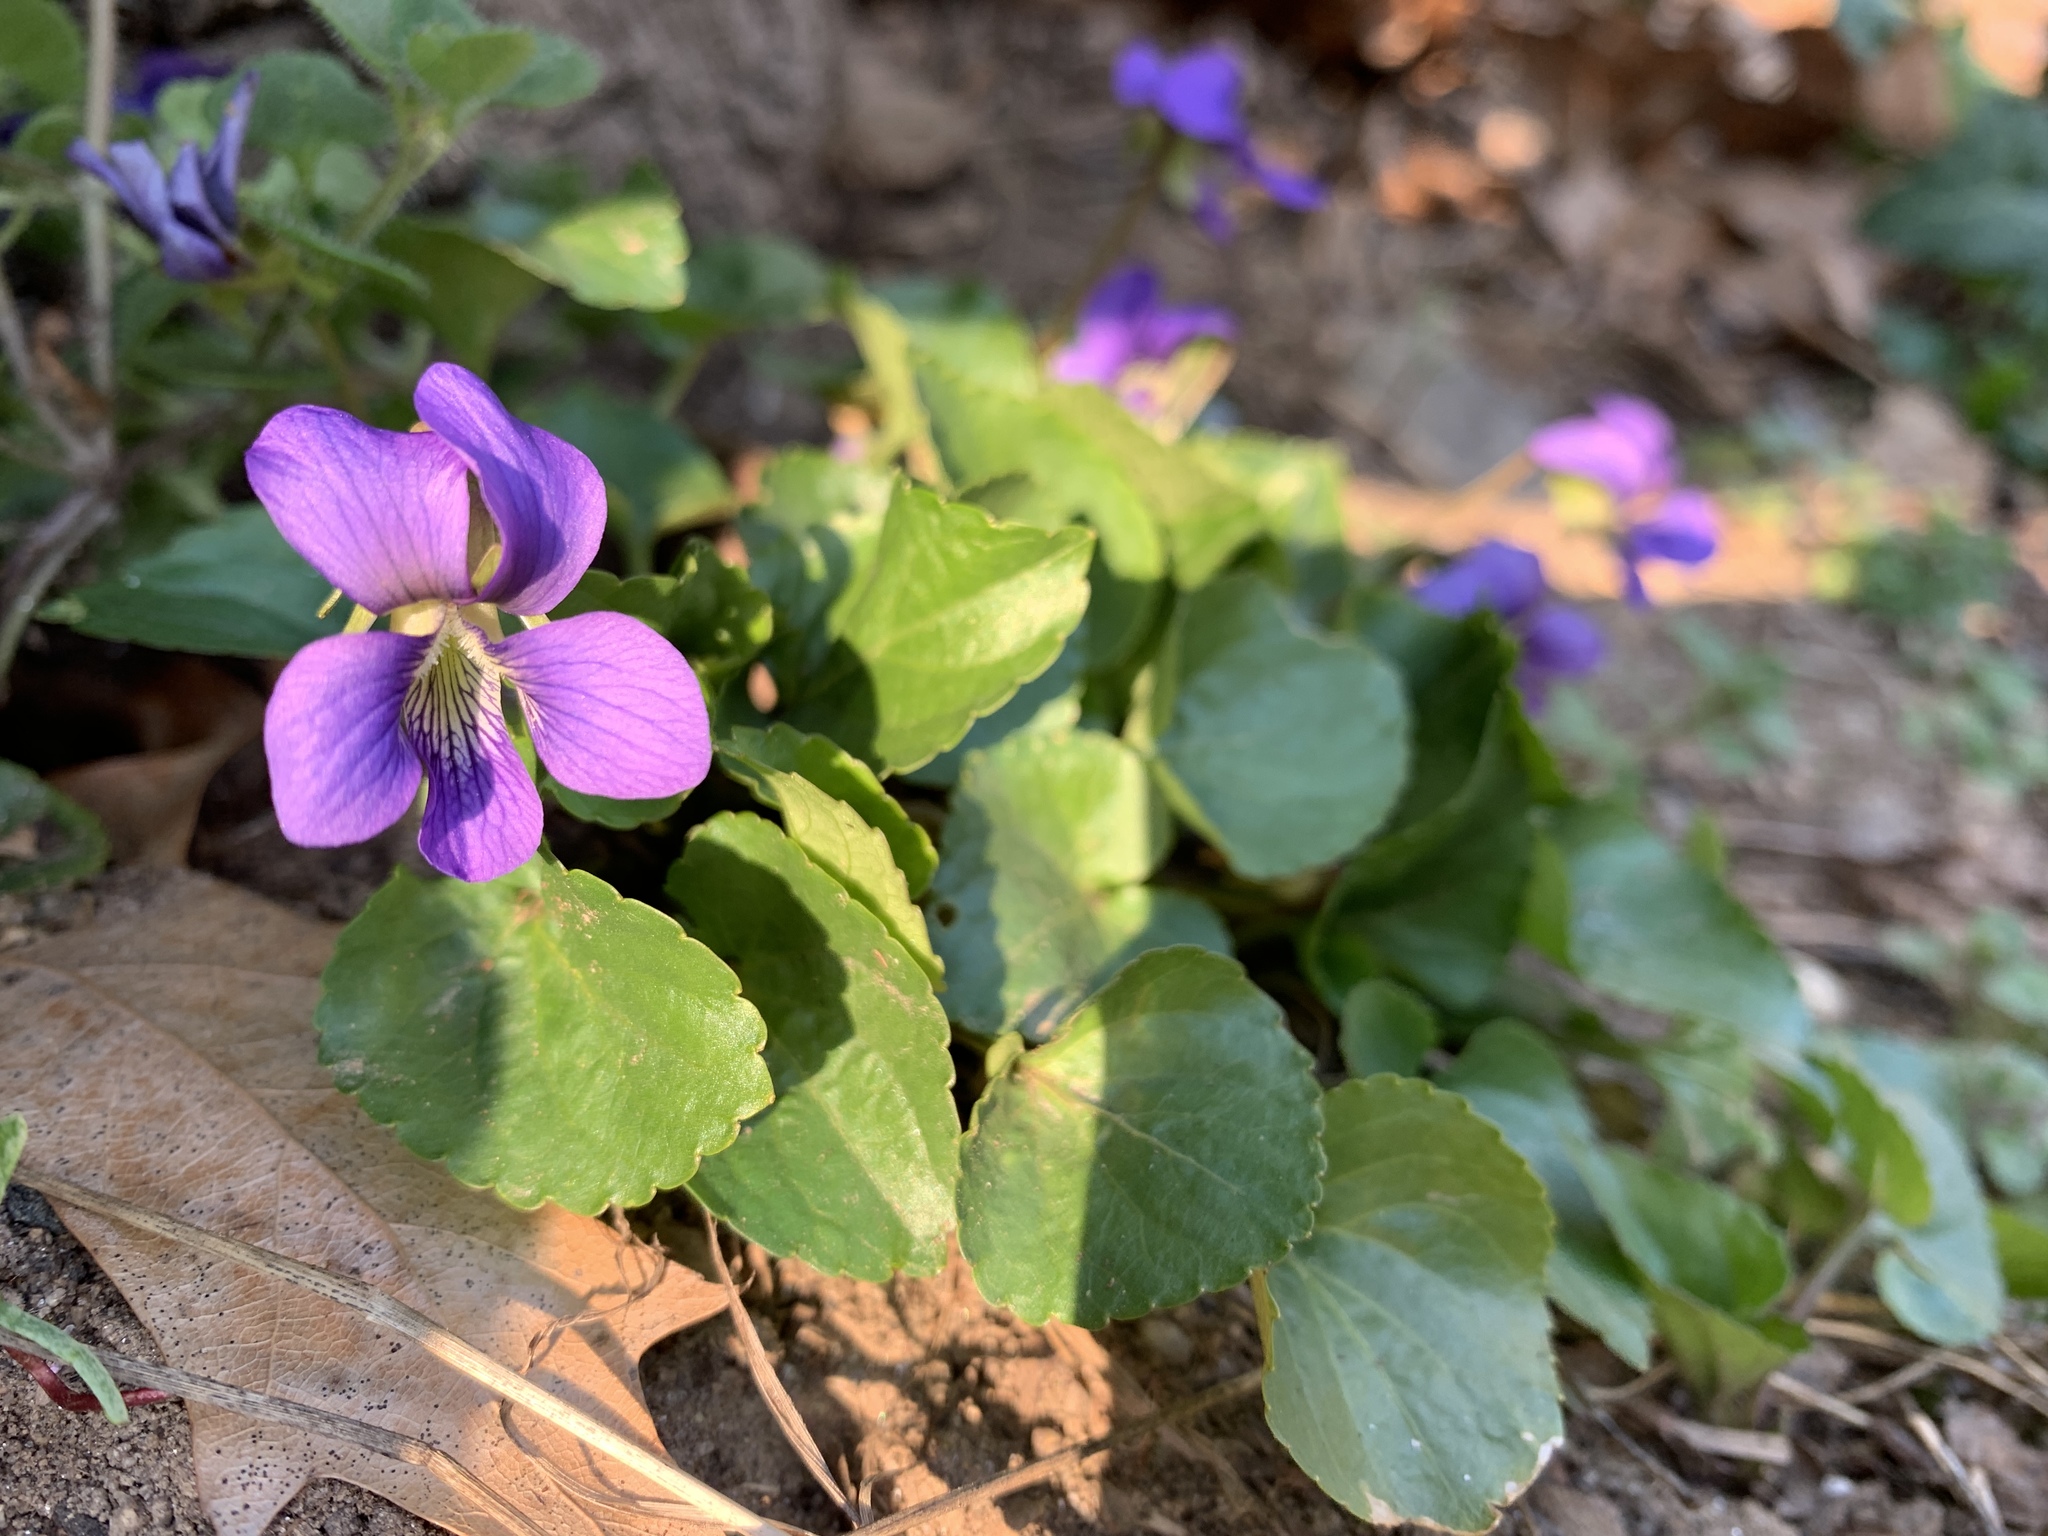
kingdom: Plantae
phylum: Tracheophyta
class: Magnoliopsida
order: Malpighiales
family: Violaceae
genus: Viola
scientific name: Viola sororia
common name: Dooryard violet
